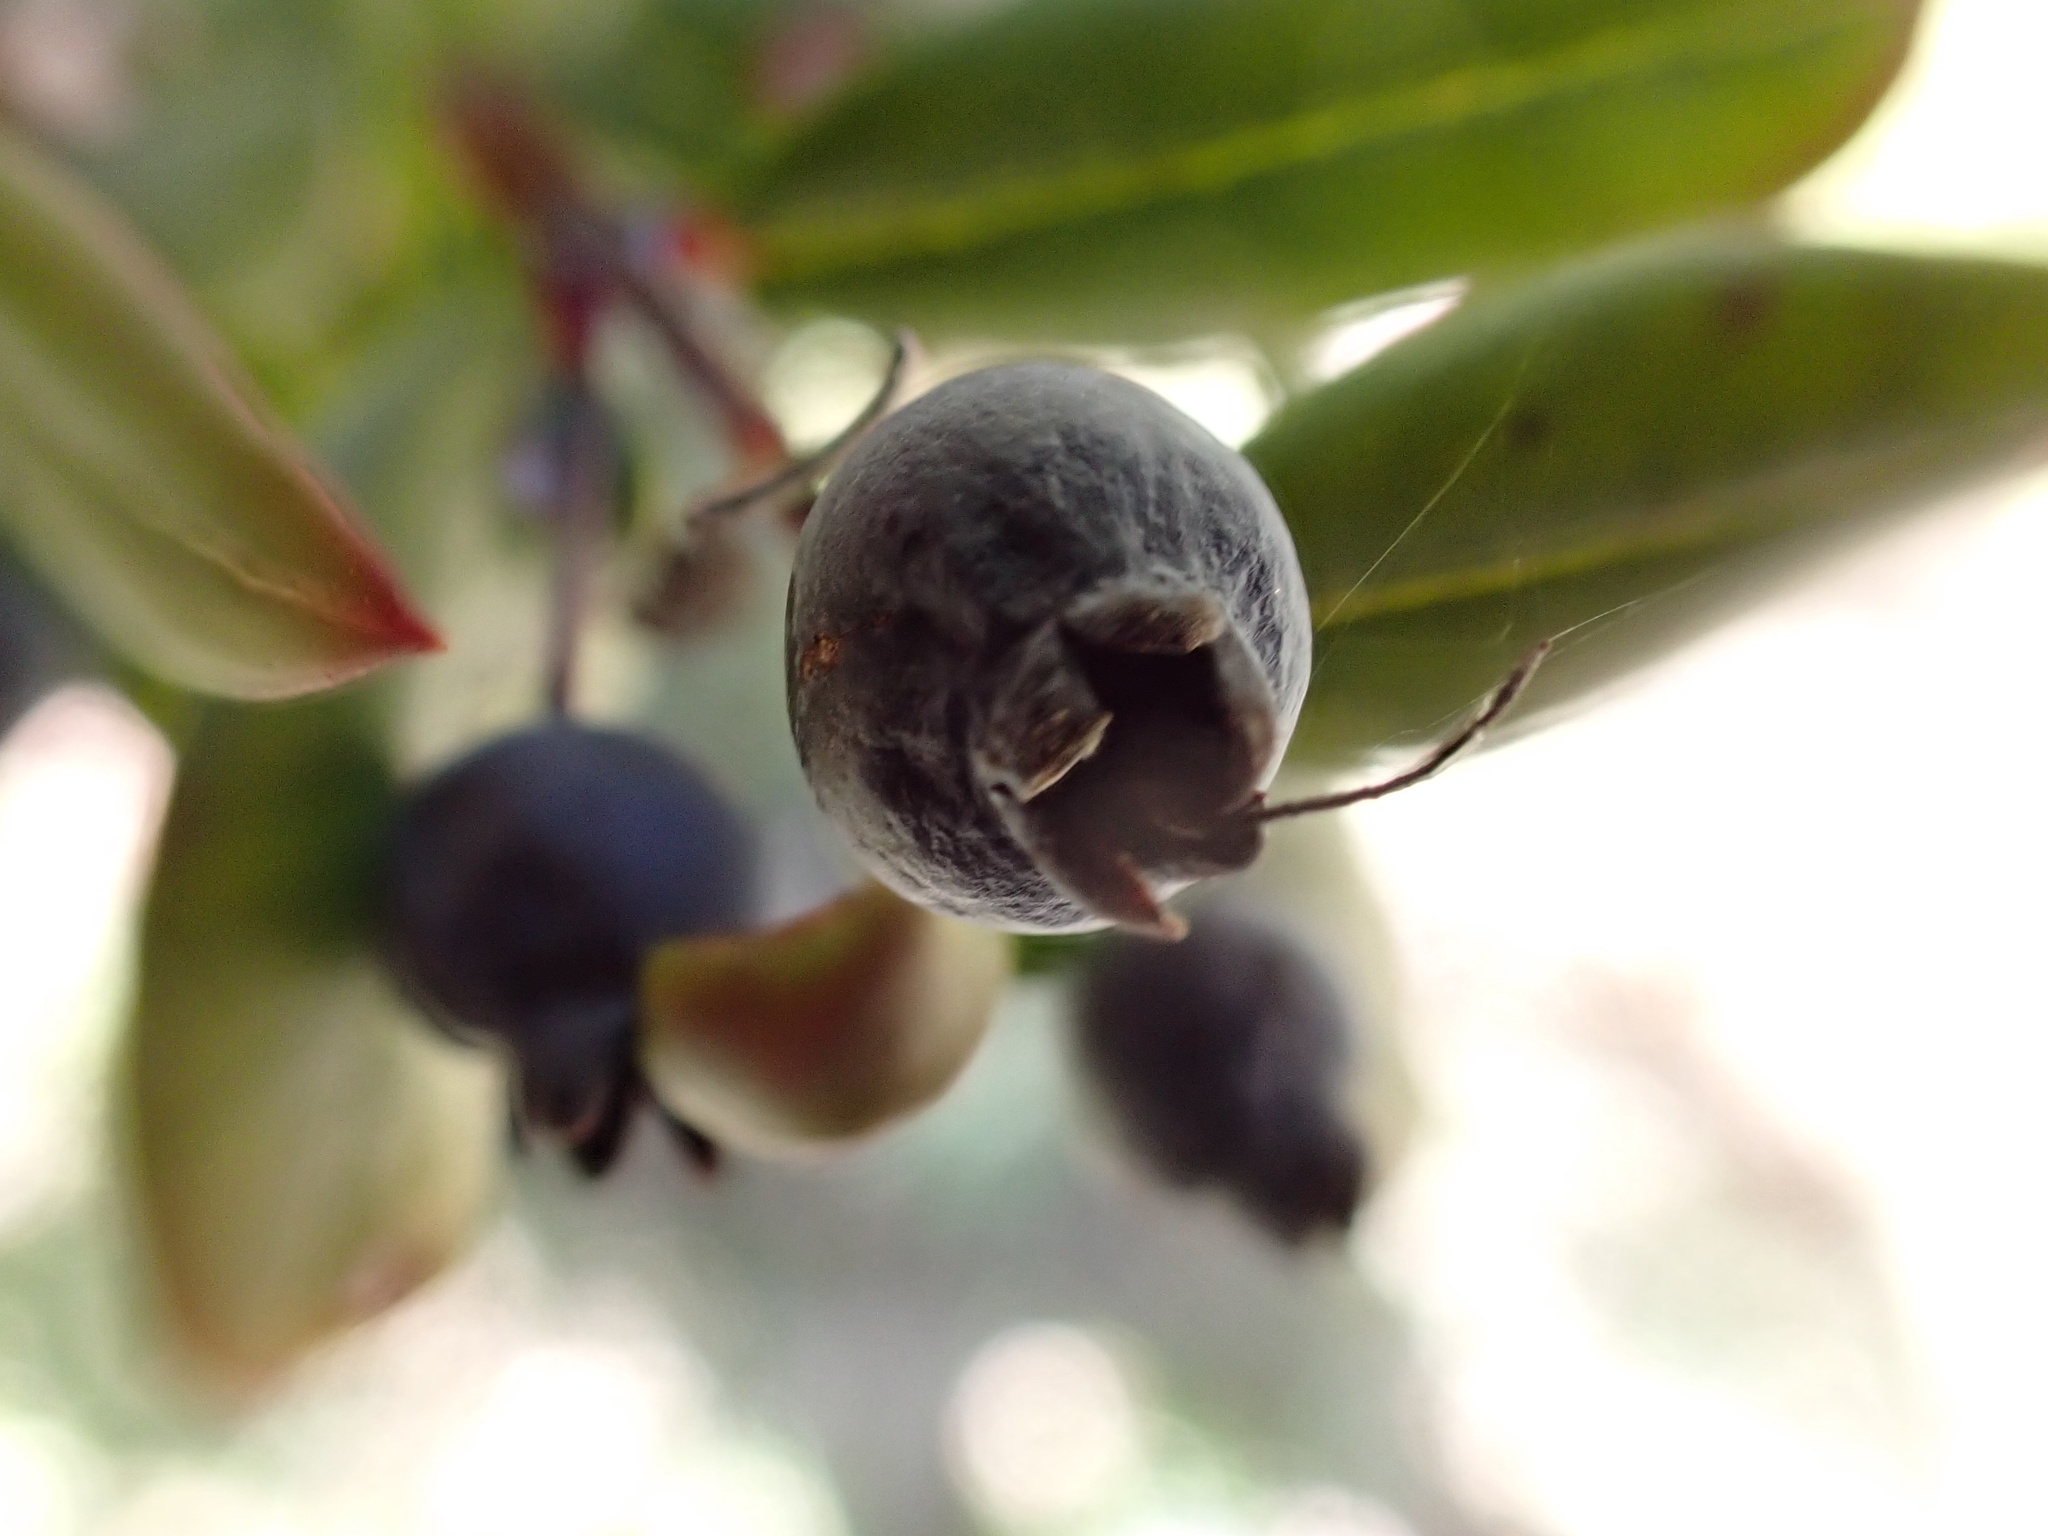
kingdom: Plantae
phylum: Tracheophyta
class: Magnoliopsida
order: Myrtales
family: Myrtaceae
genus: Myrtus
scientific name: Myrtus communis
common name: Myrtle
